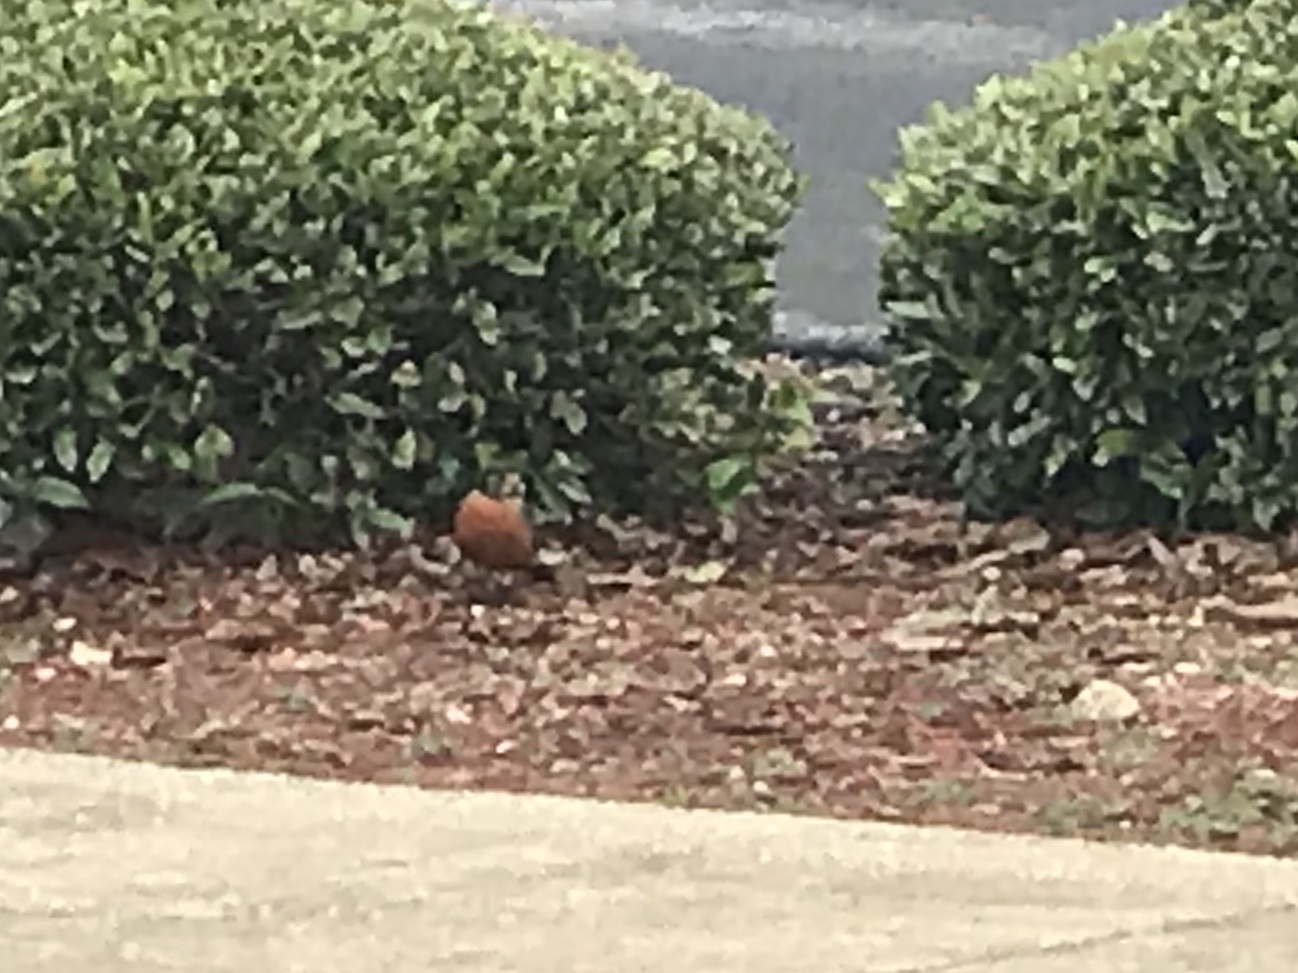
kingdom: Animalia
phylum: Chordata
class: Aves
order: Passeriformes
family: Turdidae
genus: Turdus
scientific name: Turdus migratorius
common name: American robin
